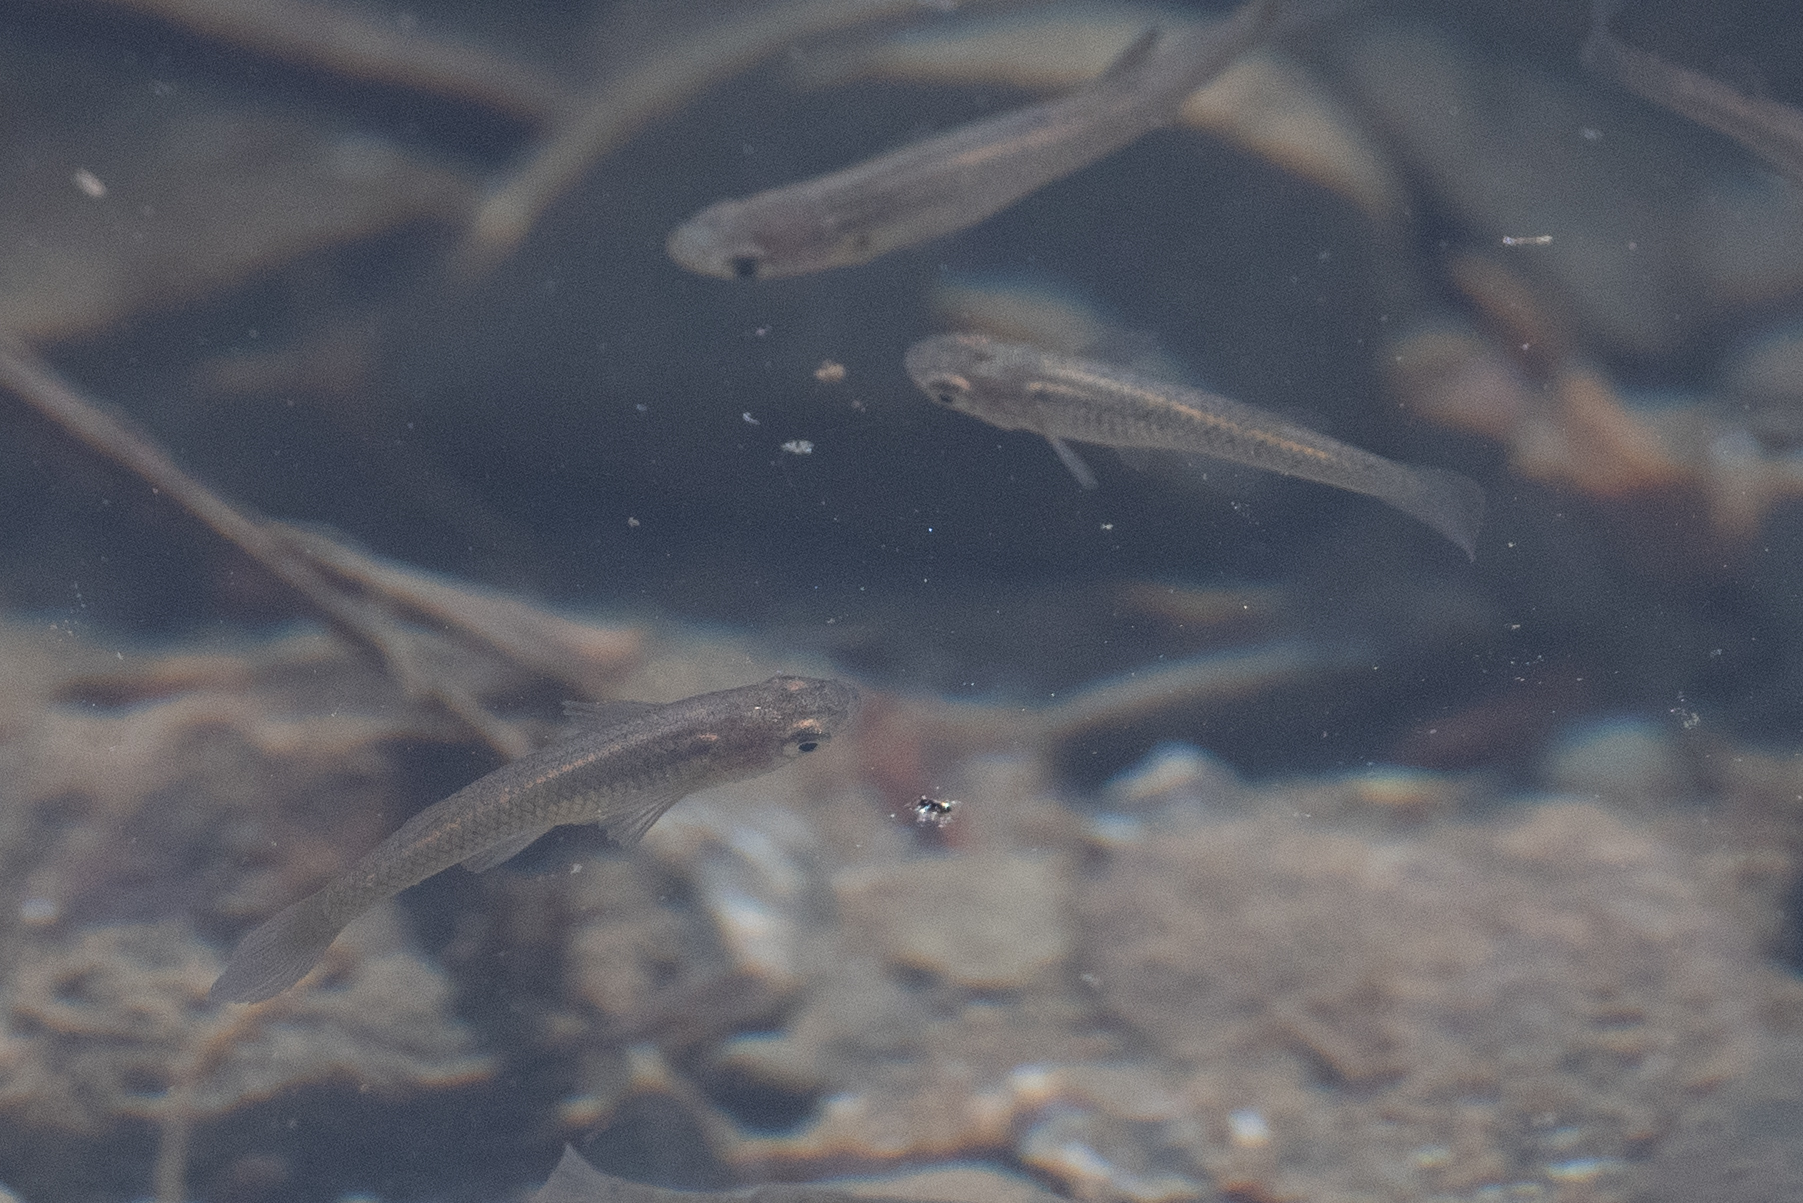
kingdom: Animalia
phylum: Chordata
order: Cyprinodontiformes
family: Poeciliidae
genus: Gambusia
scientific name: Gambusia affinis
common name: Mosquitofish
